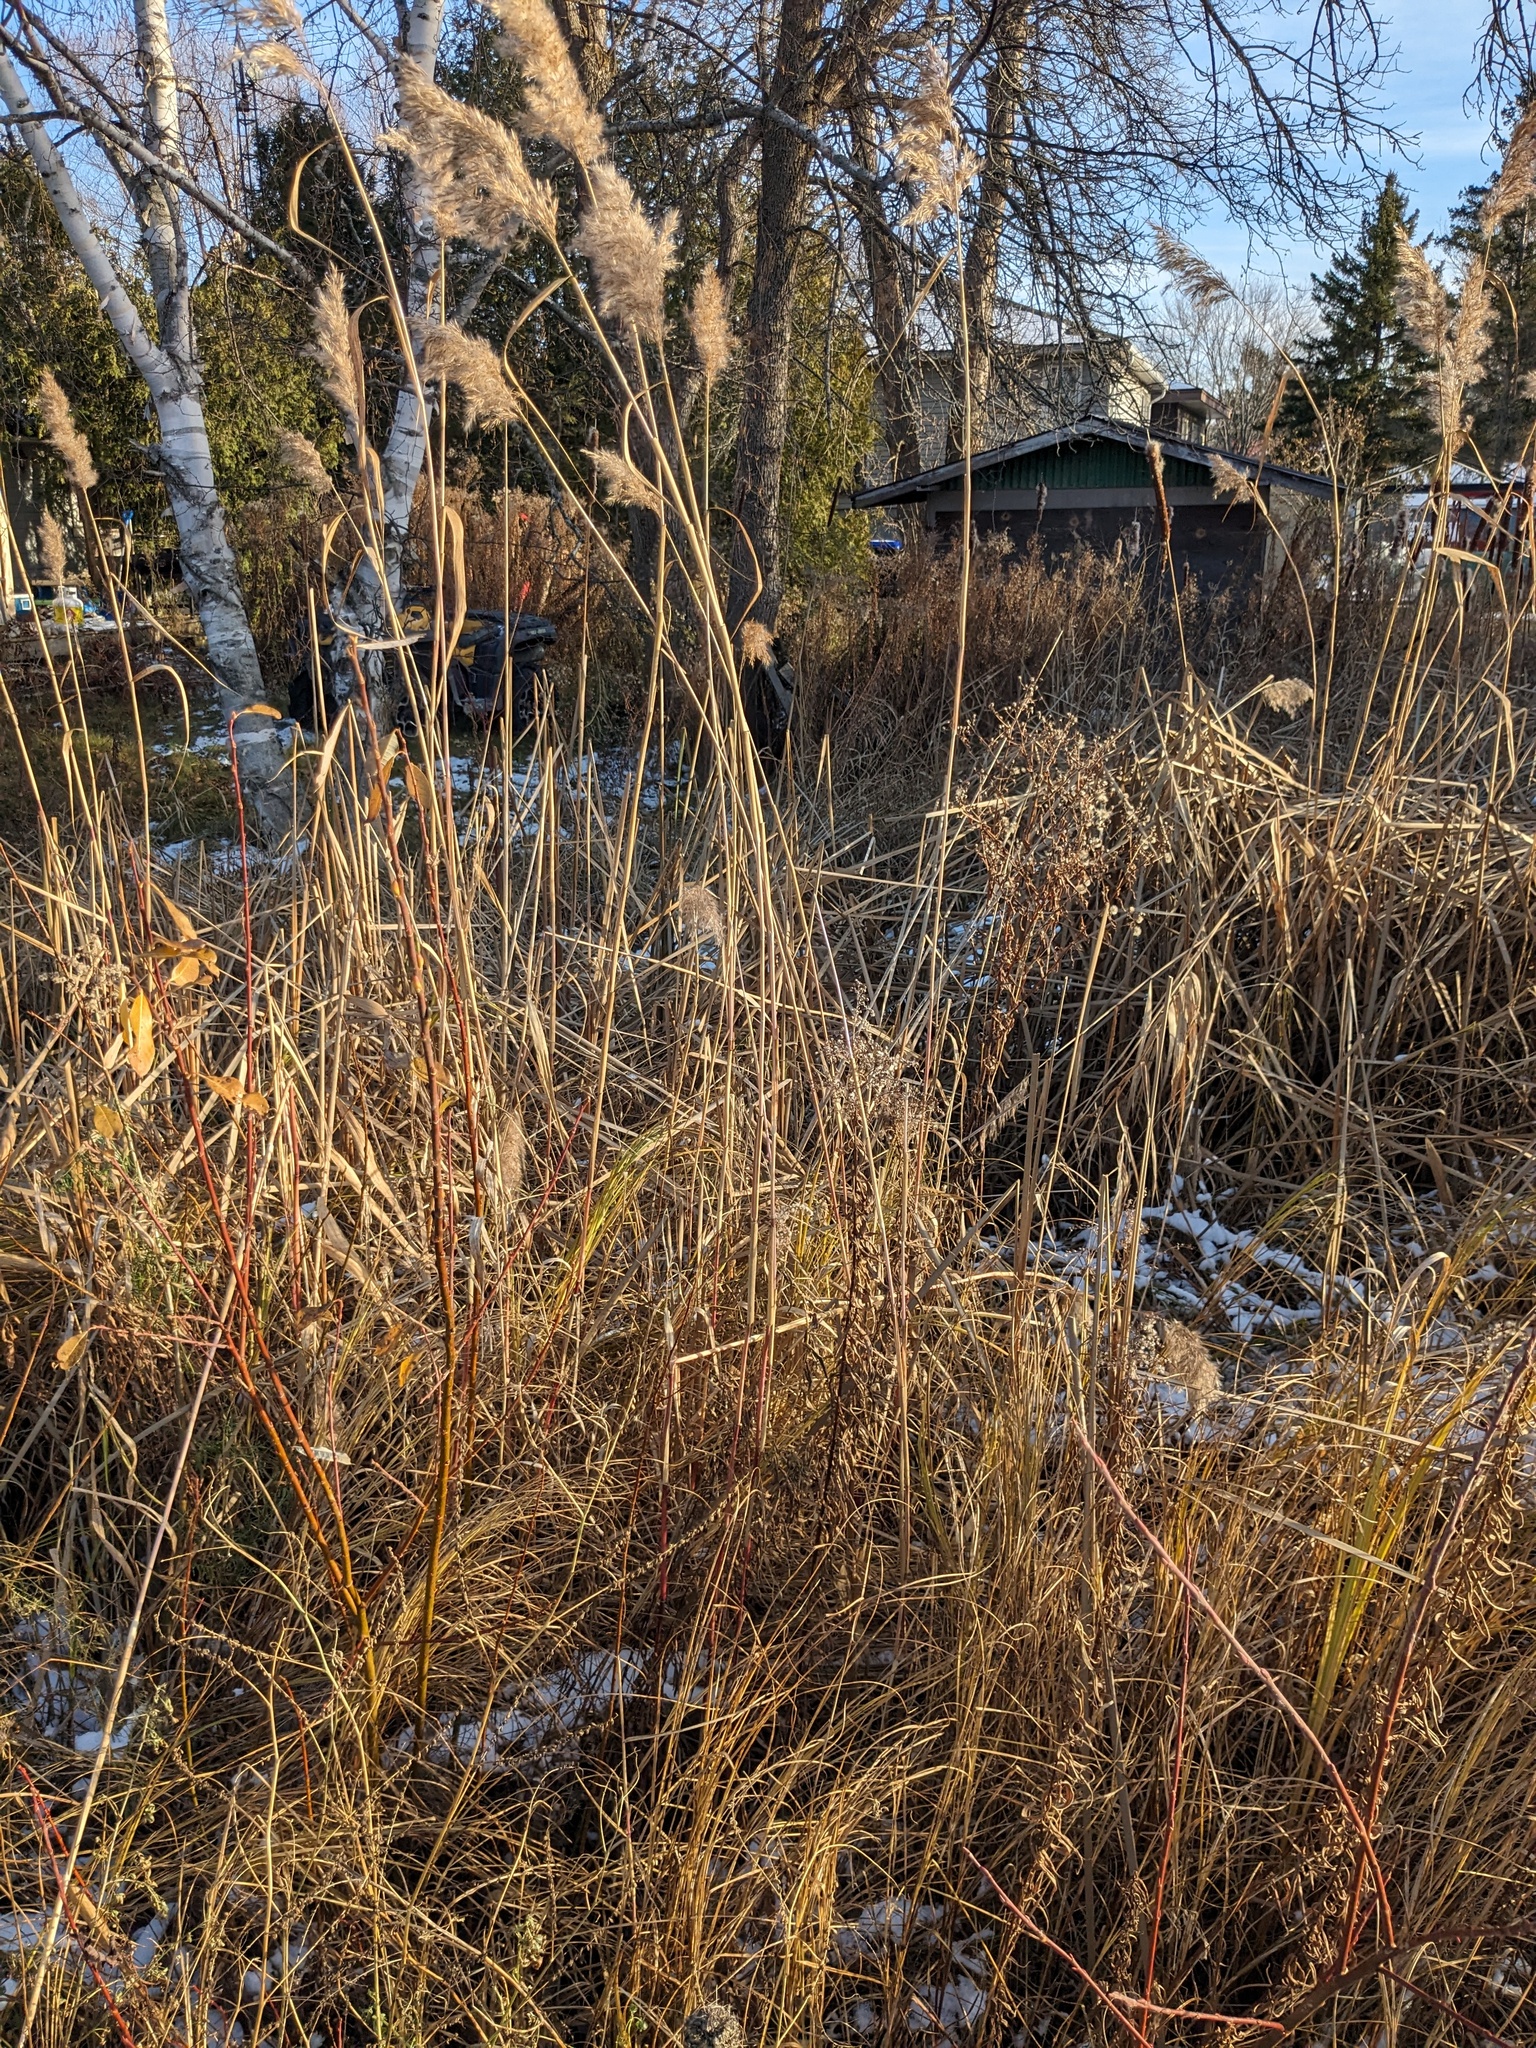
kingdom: Plantae
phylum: Tracheophyta
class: Liliopsida
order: Poales
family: Poaceae
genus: Phragmites
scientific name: Phragmites australis
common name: Common reed
